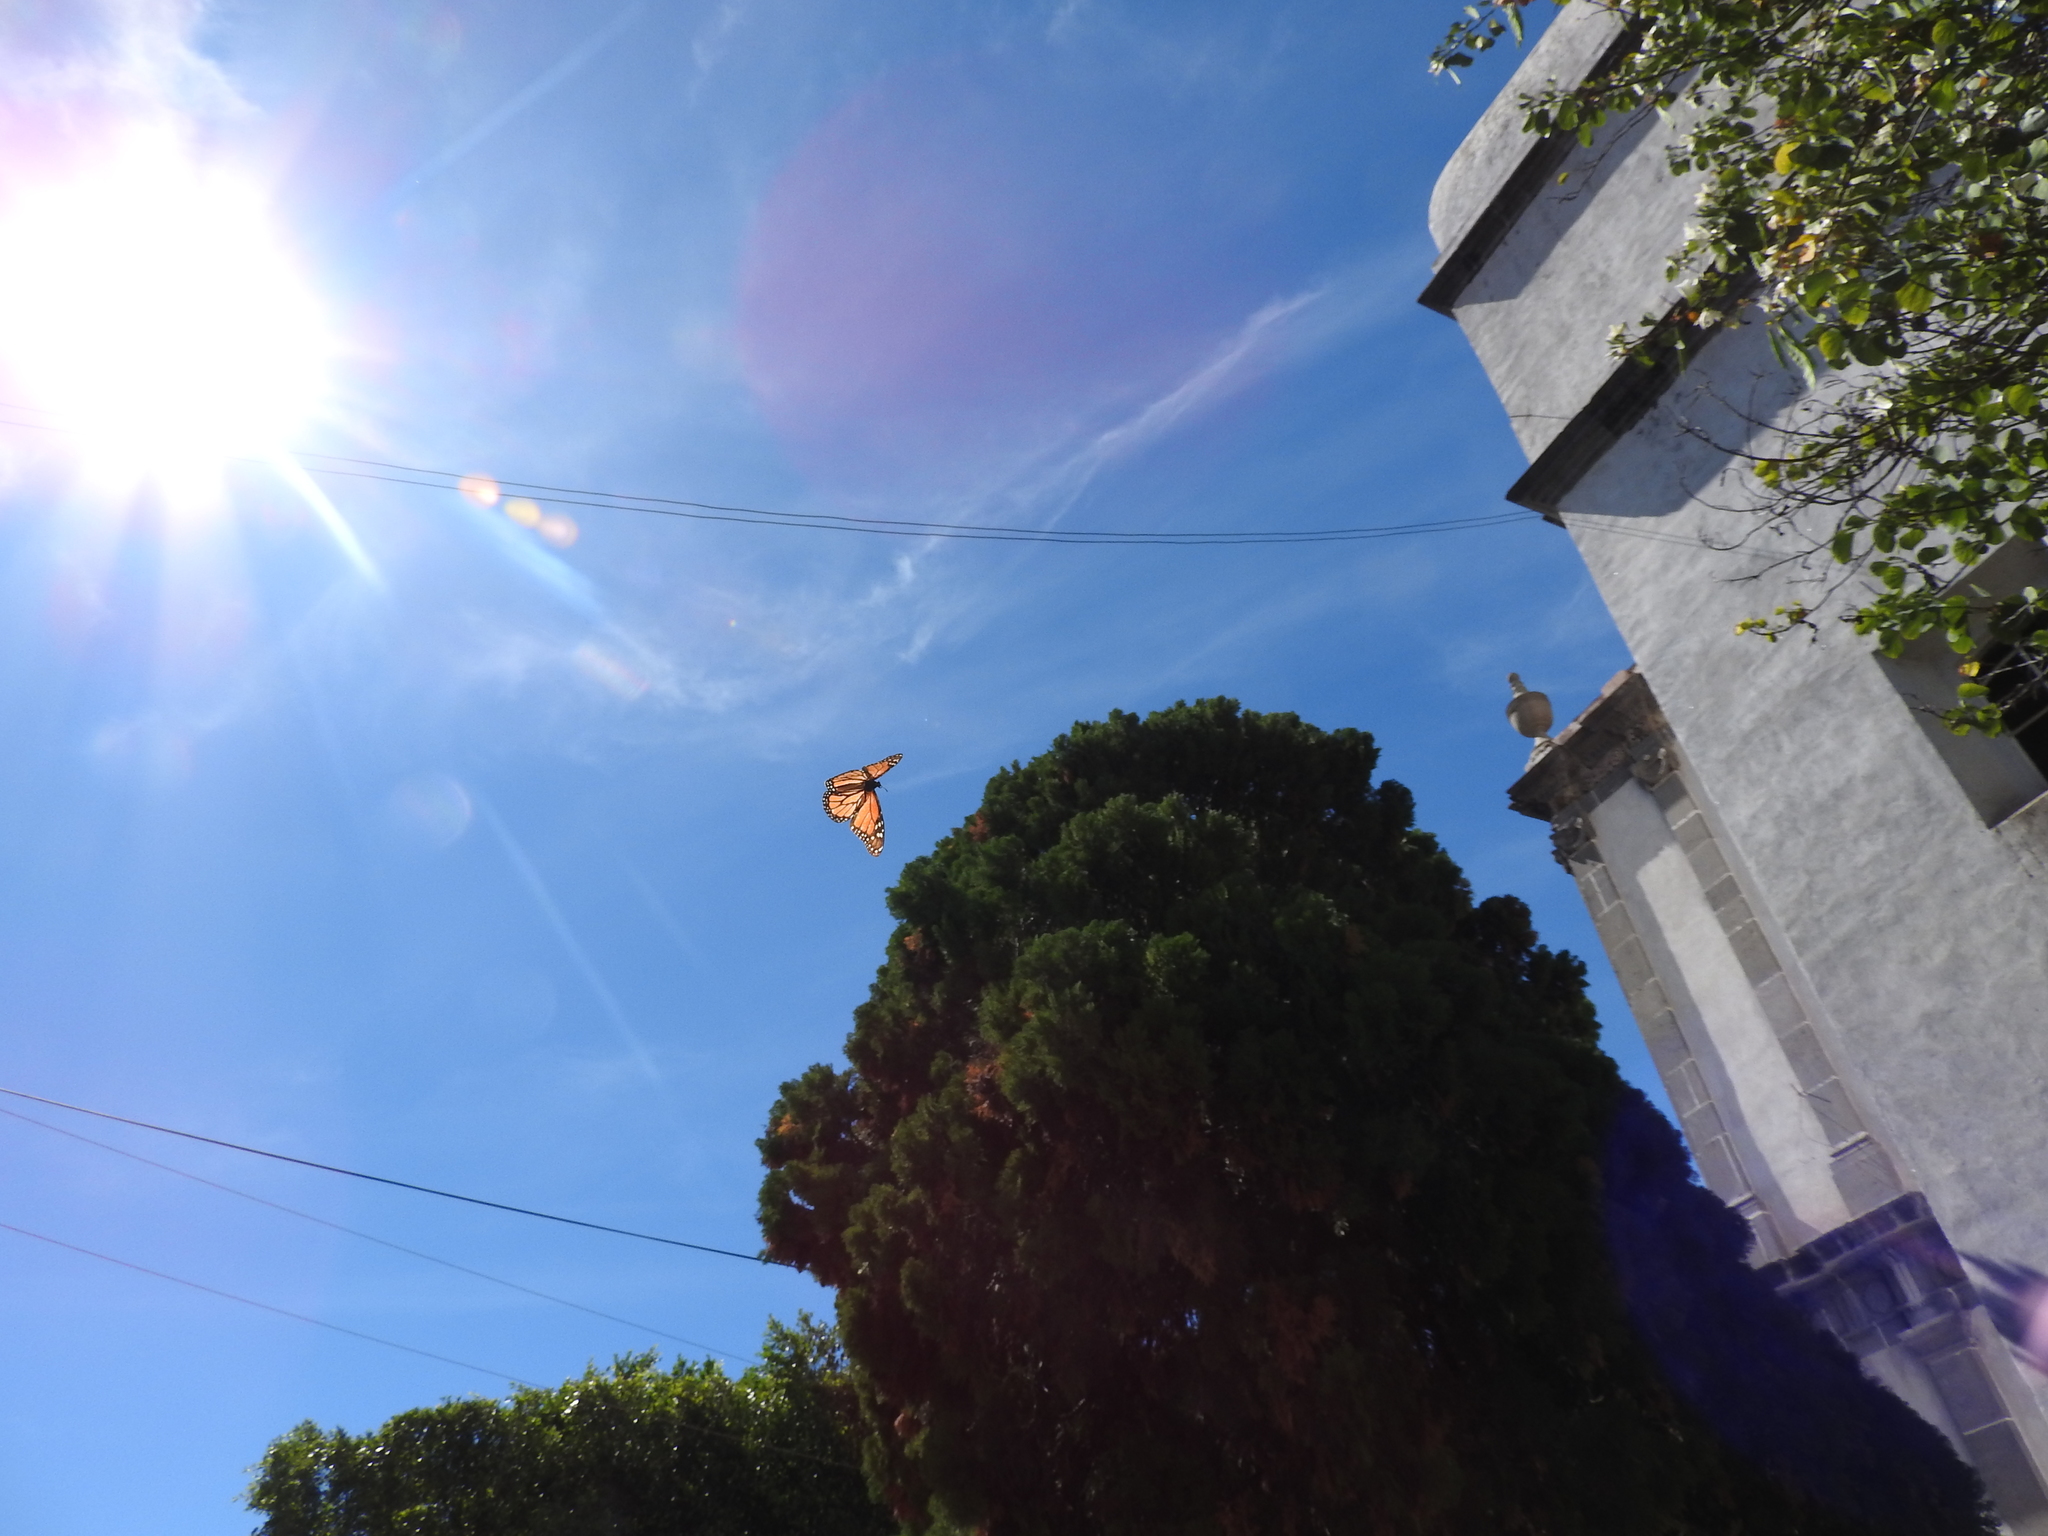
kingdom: Animalia
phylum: Arthropoda
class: Insecta
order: Lepidoptera
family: Nymphalidae
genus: Danaus
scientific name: Danaus plexippus
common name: Monarch
